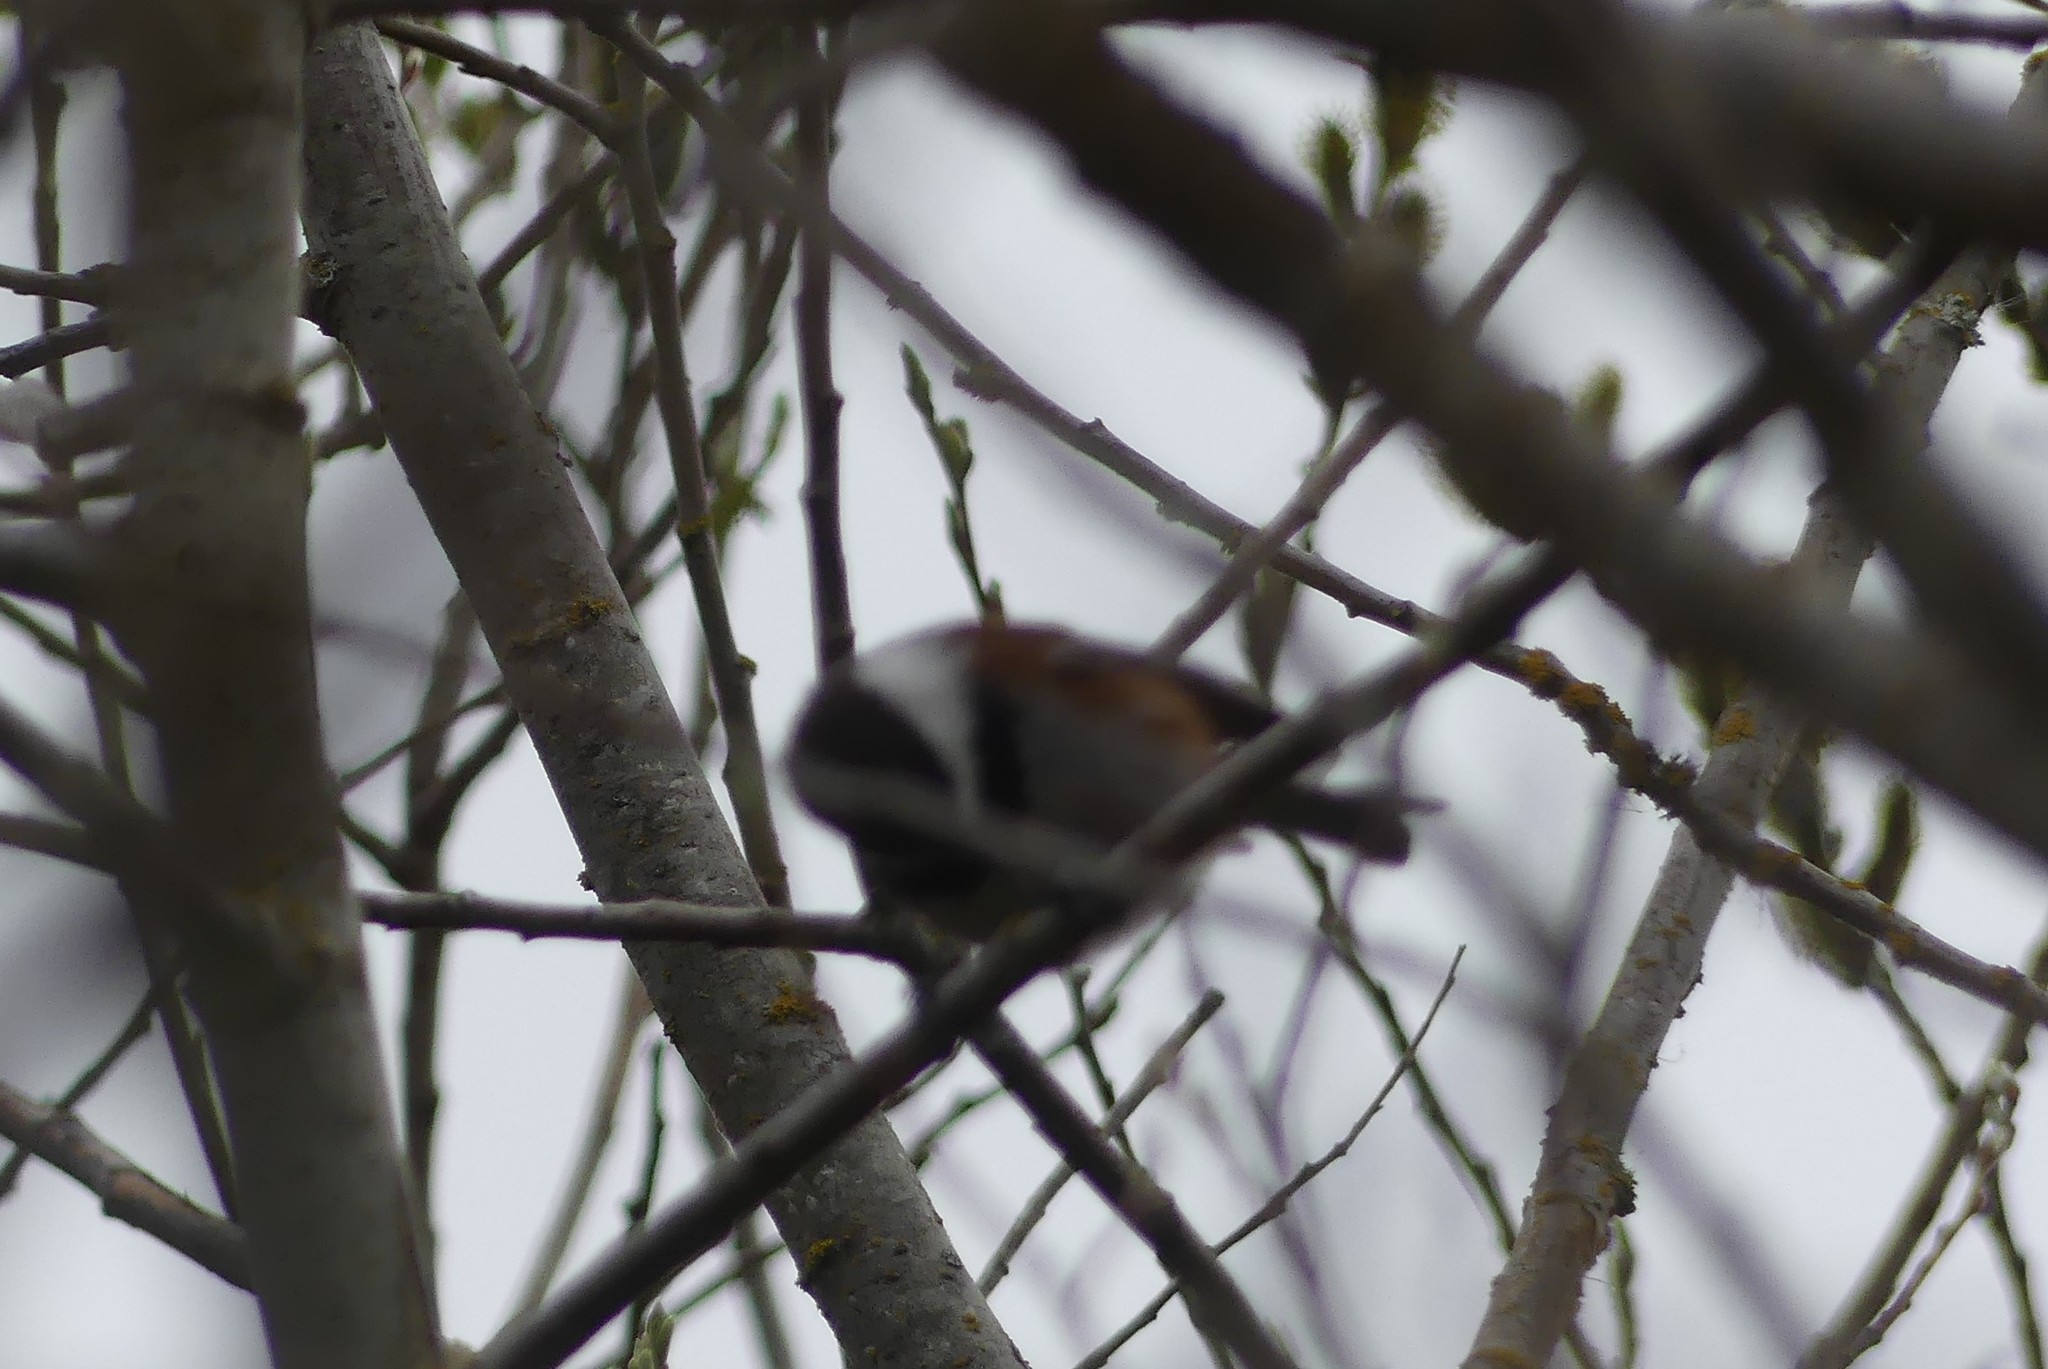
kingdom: Animalia
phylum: Chordata
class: Aves
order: Passeriformes
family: Paridae
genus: Poecile
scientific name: Poecile rufescens
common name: Chestnut-backed chickadee
